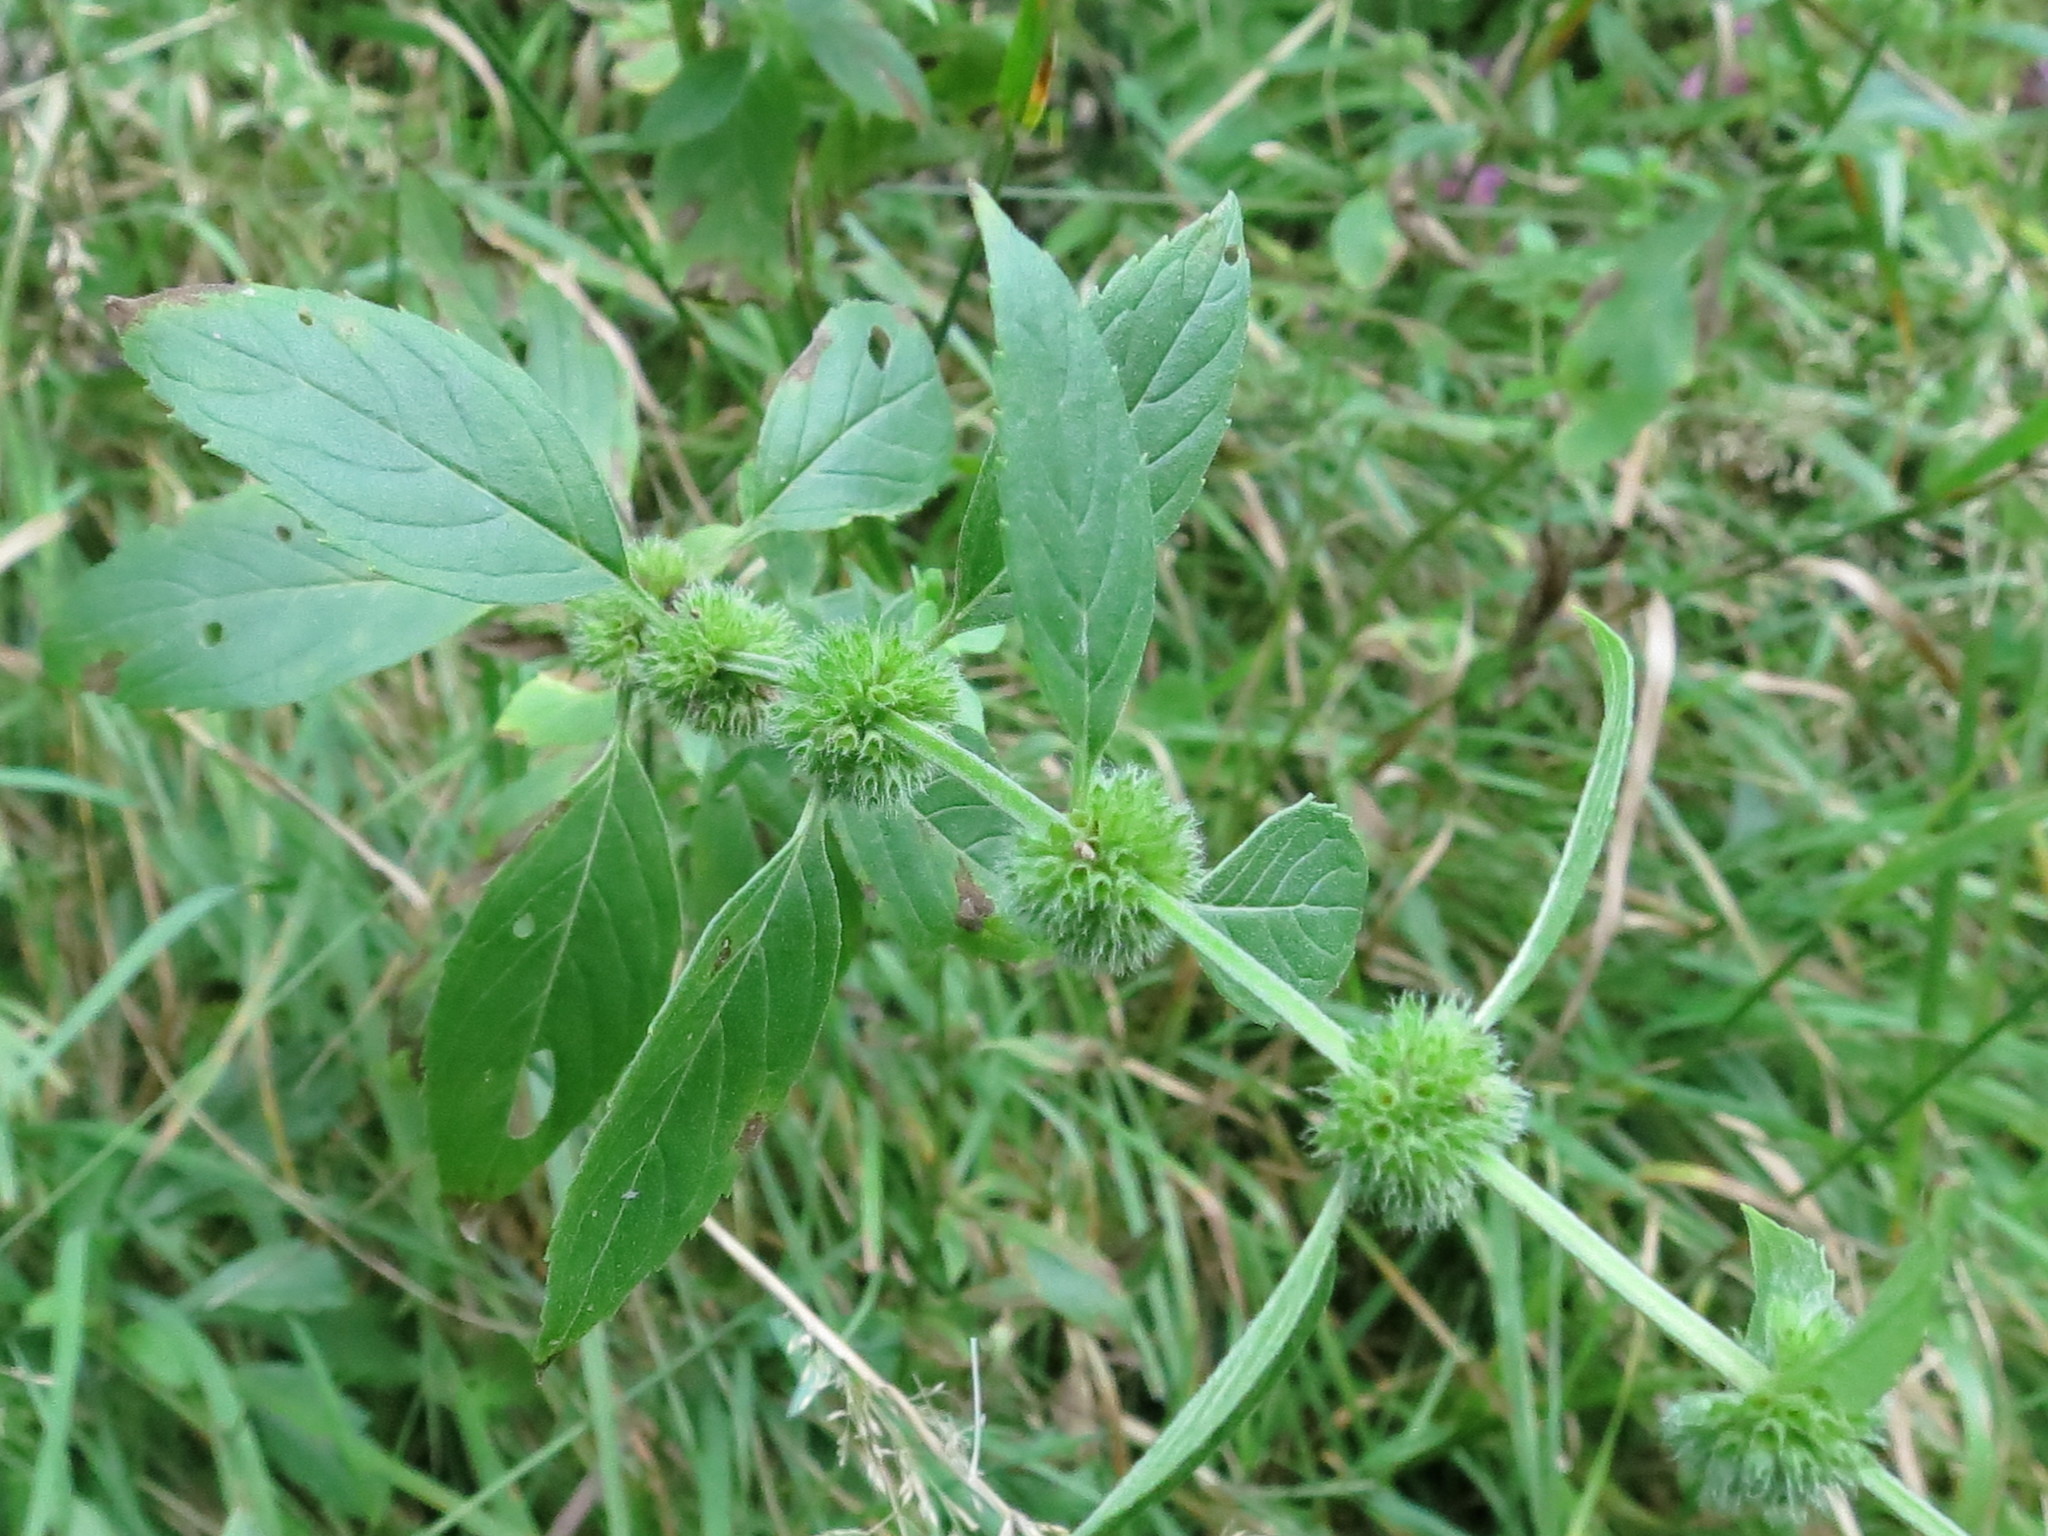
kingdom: Plantae
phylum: Tracheophyta
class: Magnoliopsida
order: Lamiales
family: Lamiaceae
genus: Mentha
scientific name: Mentha canadensis
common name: American corn mint
